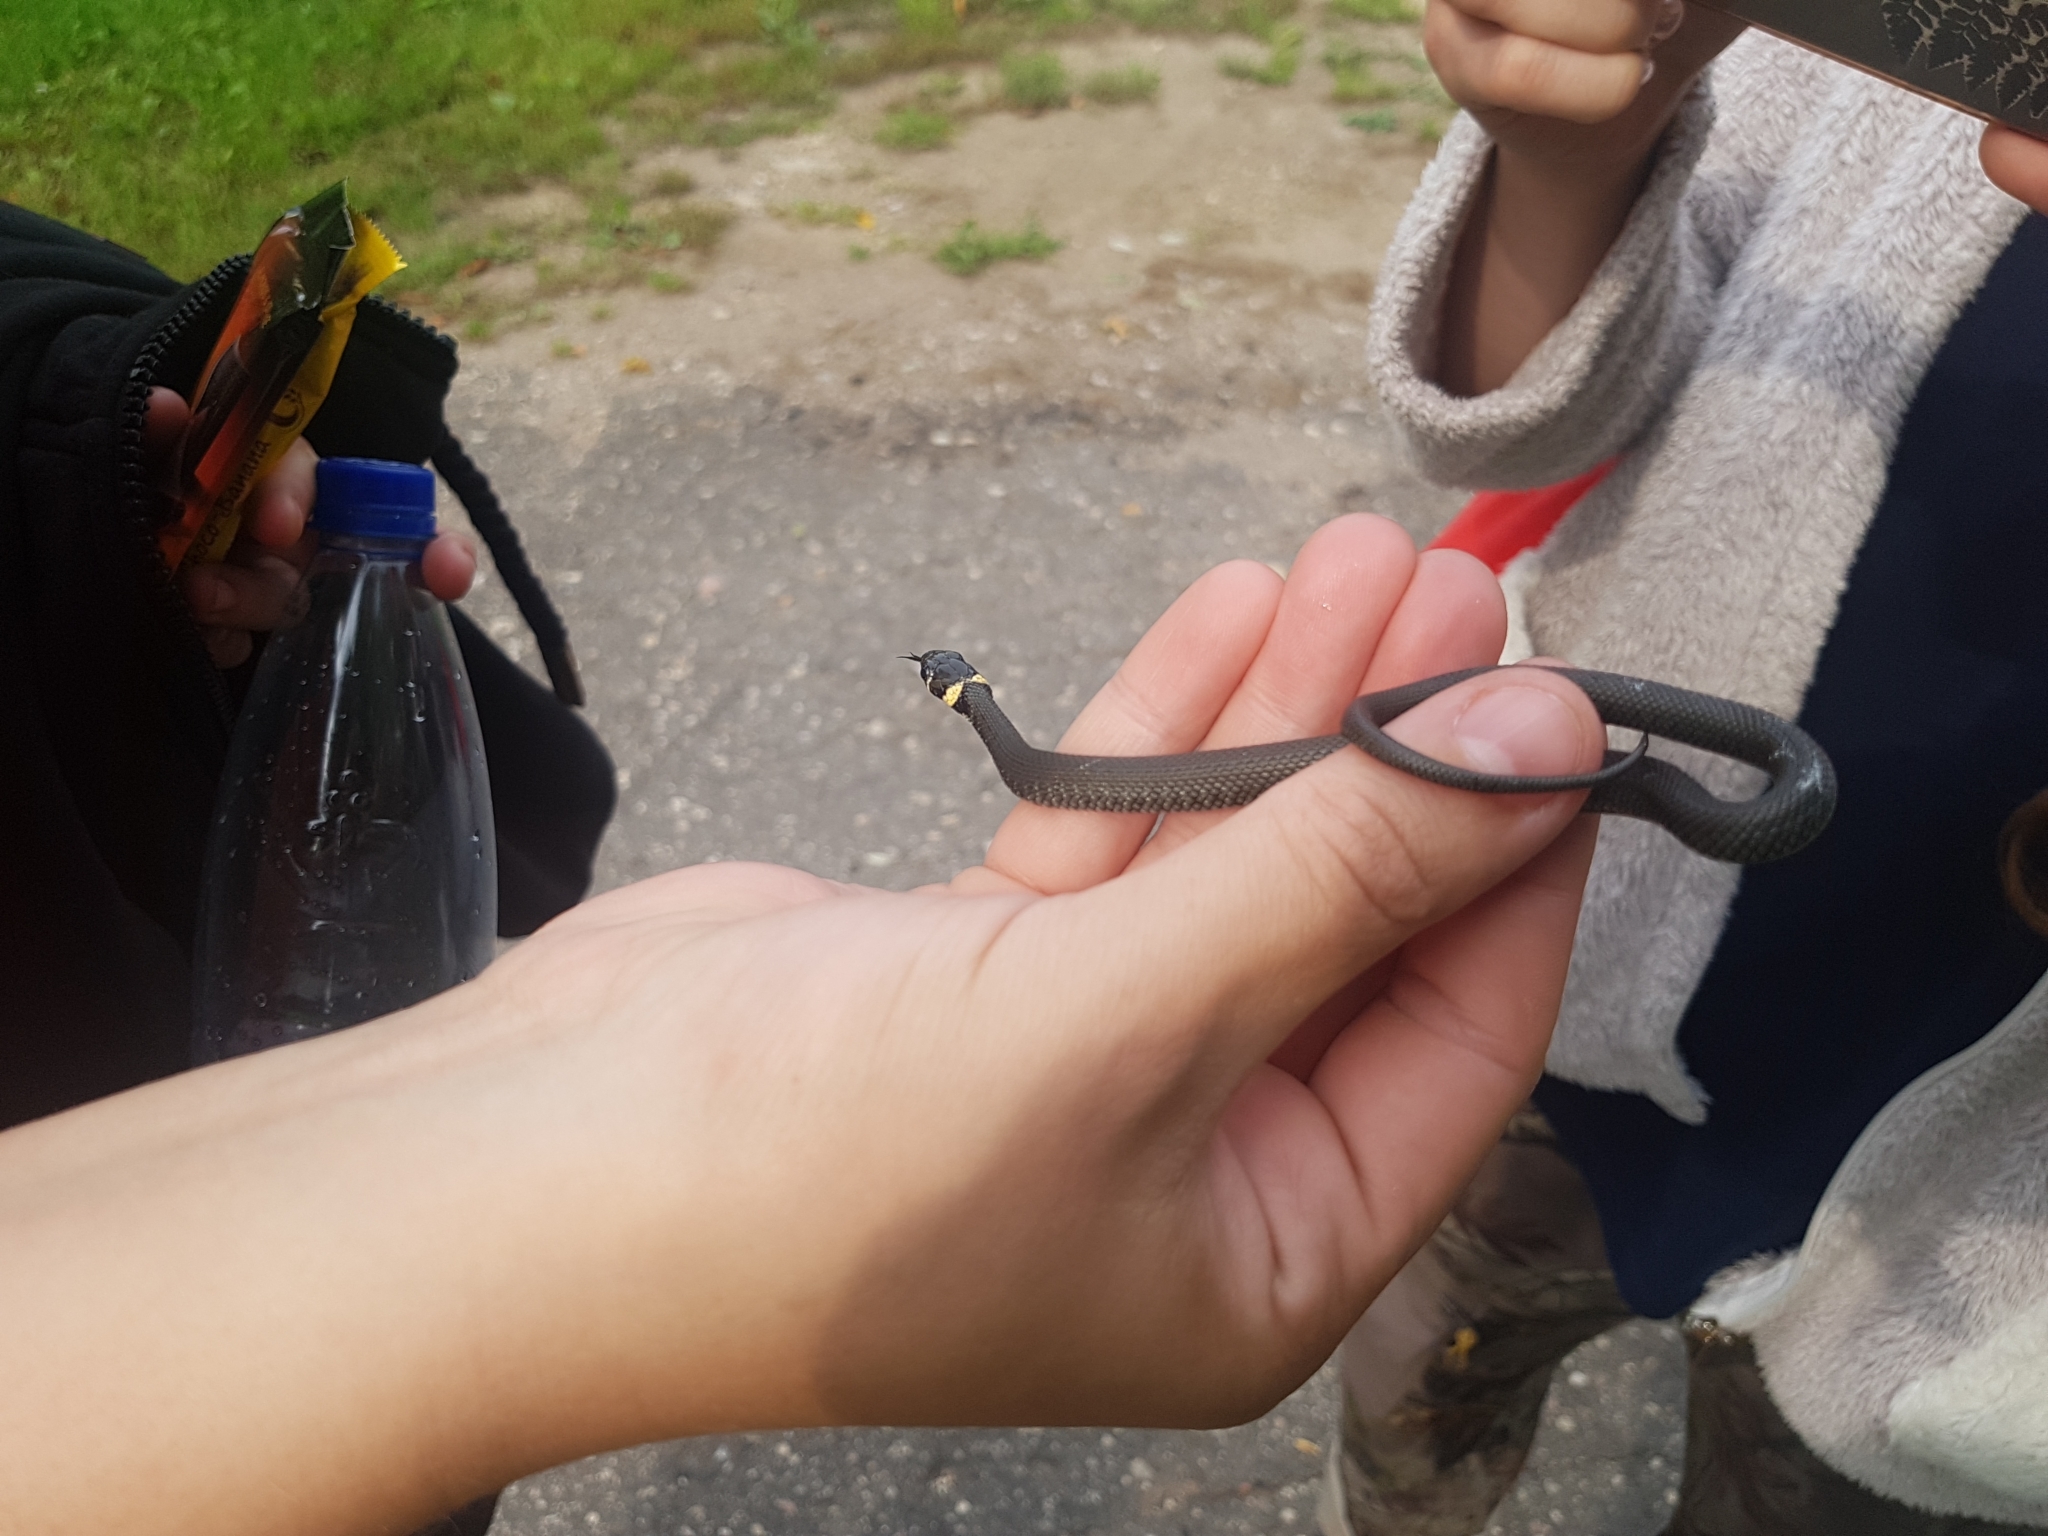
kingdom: Animalia
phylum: Chordata
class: Squamata
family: Colubridae
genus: Natrix
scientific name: Natrix natrix
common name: Grass snake
